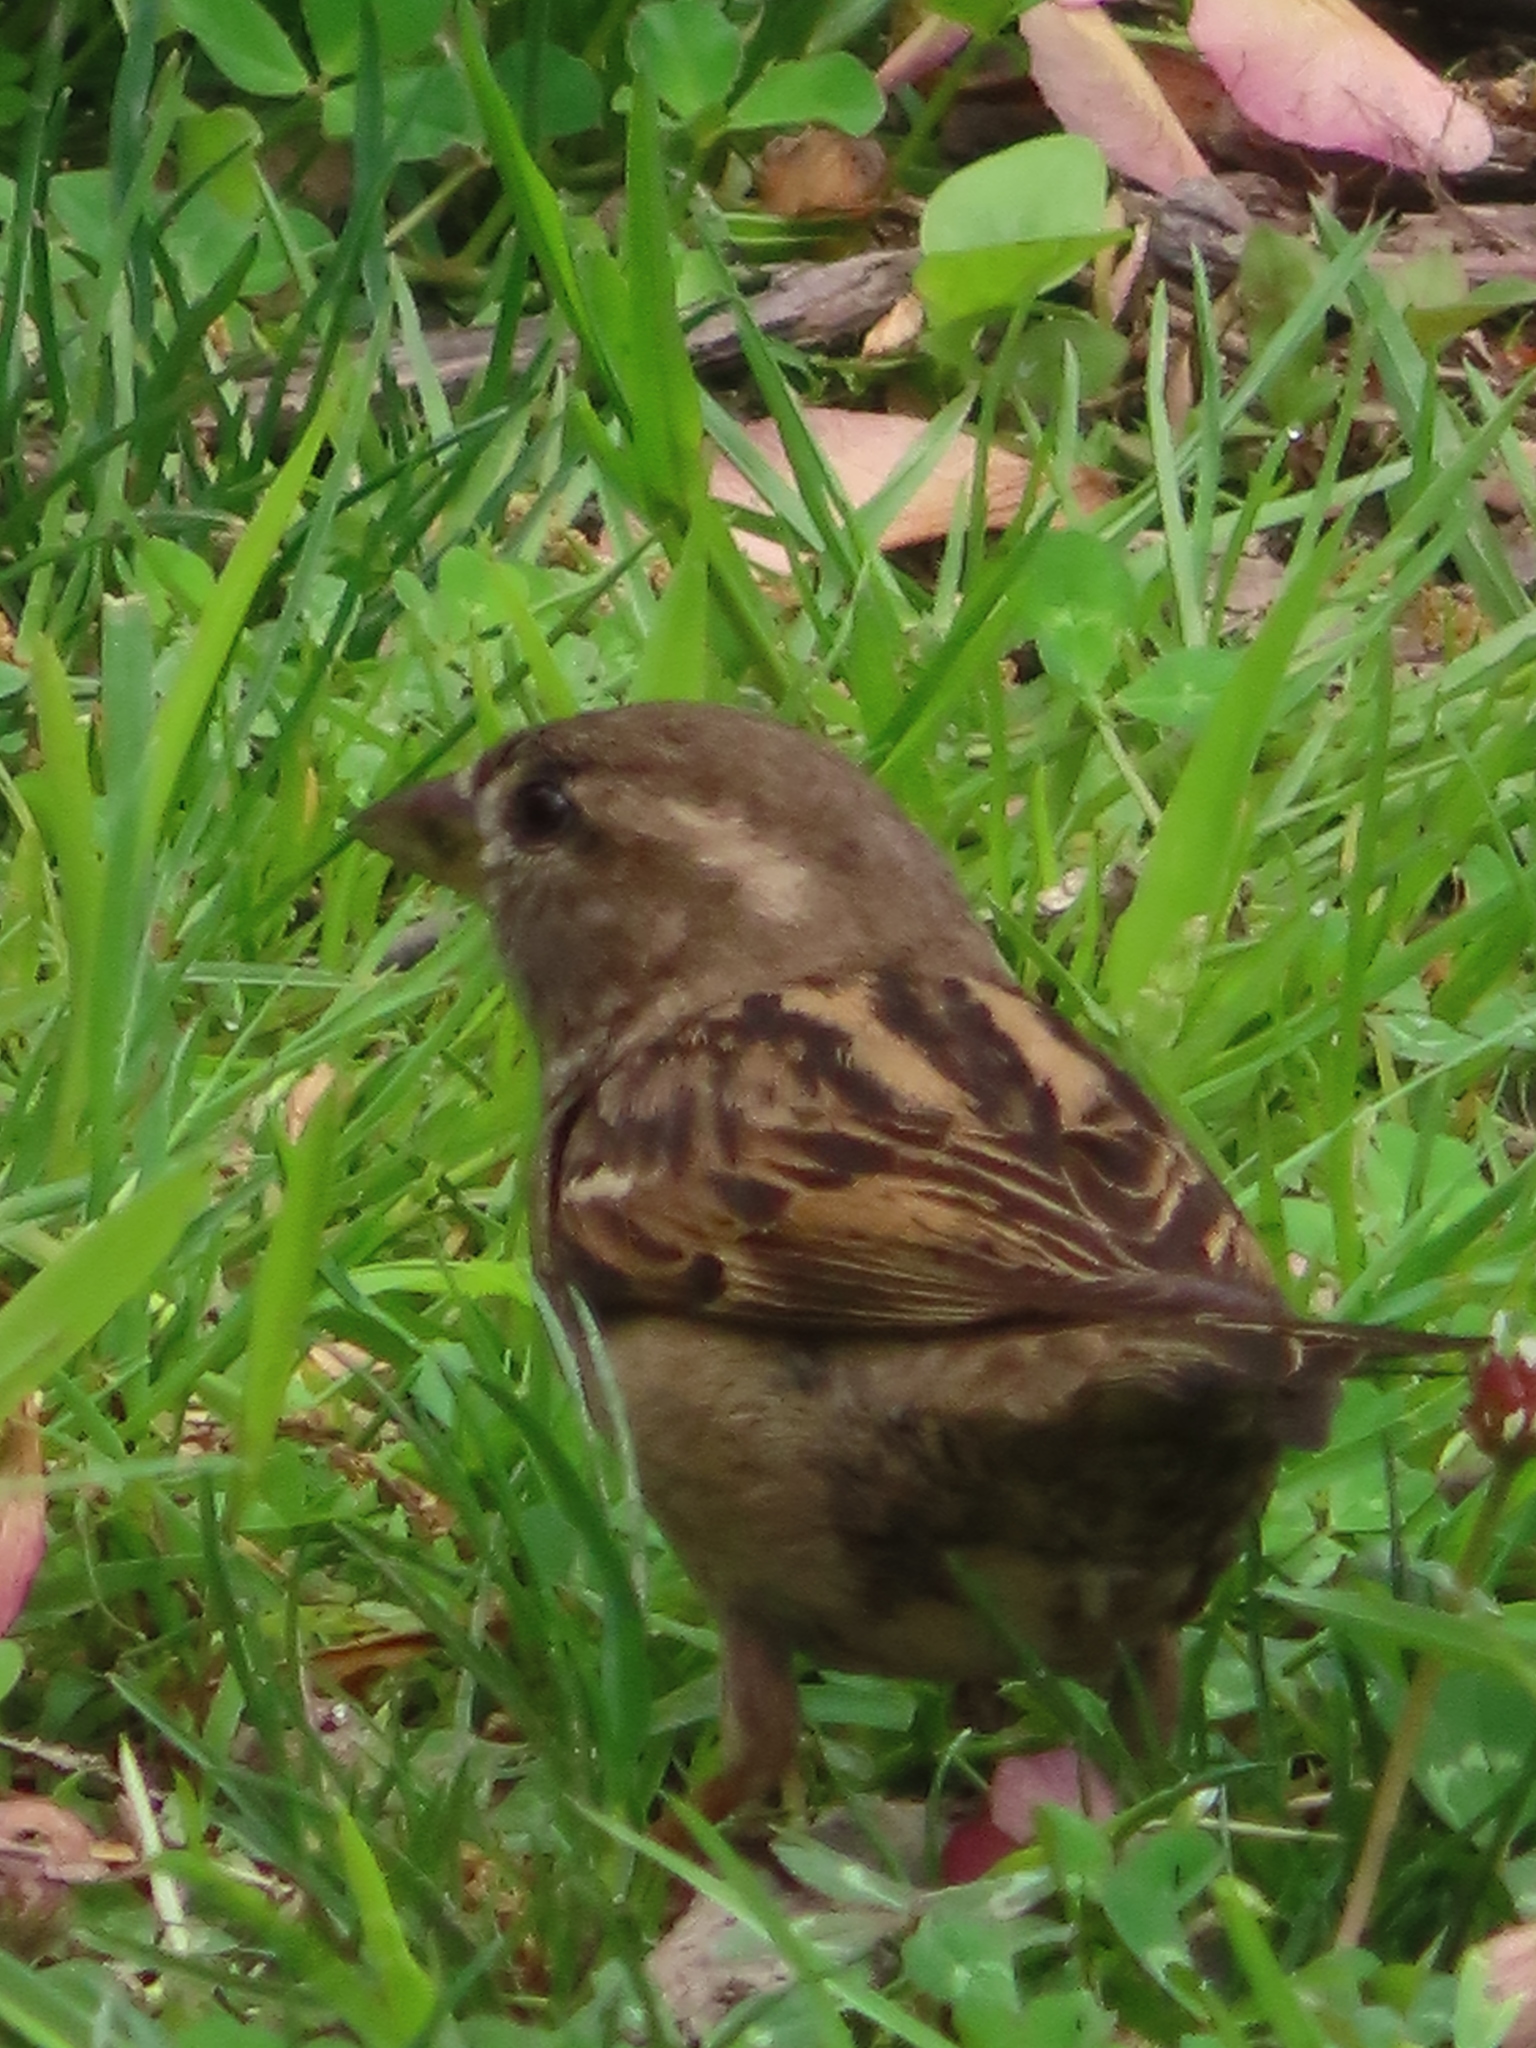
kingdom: Animalia
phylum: Chordata
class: Aves
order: Passeriformes
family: Passeridae
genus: Passer
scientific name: Passer domesticus
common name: House sparrow
